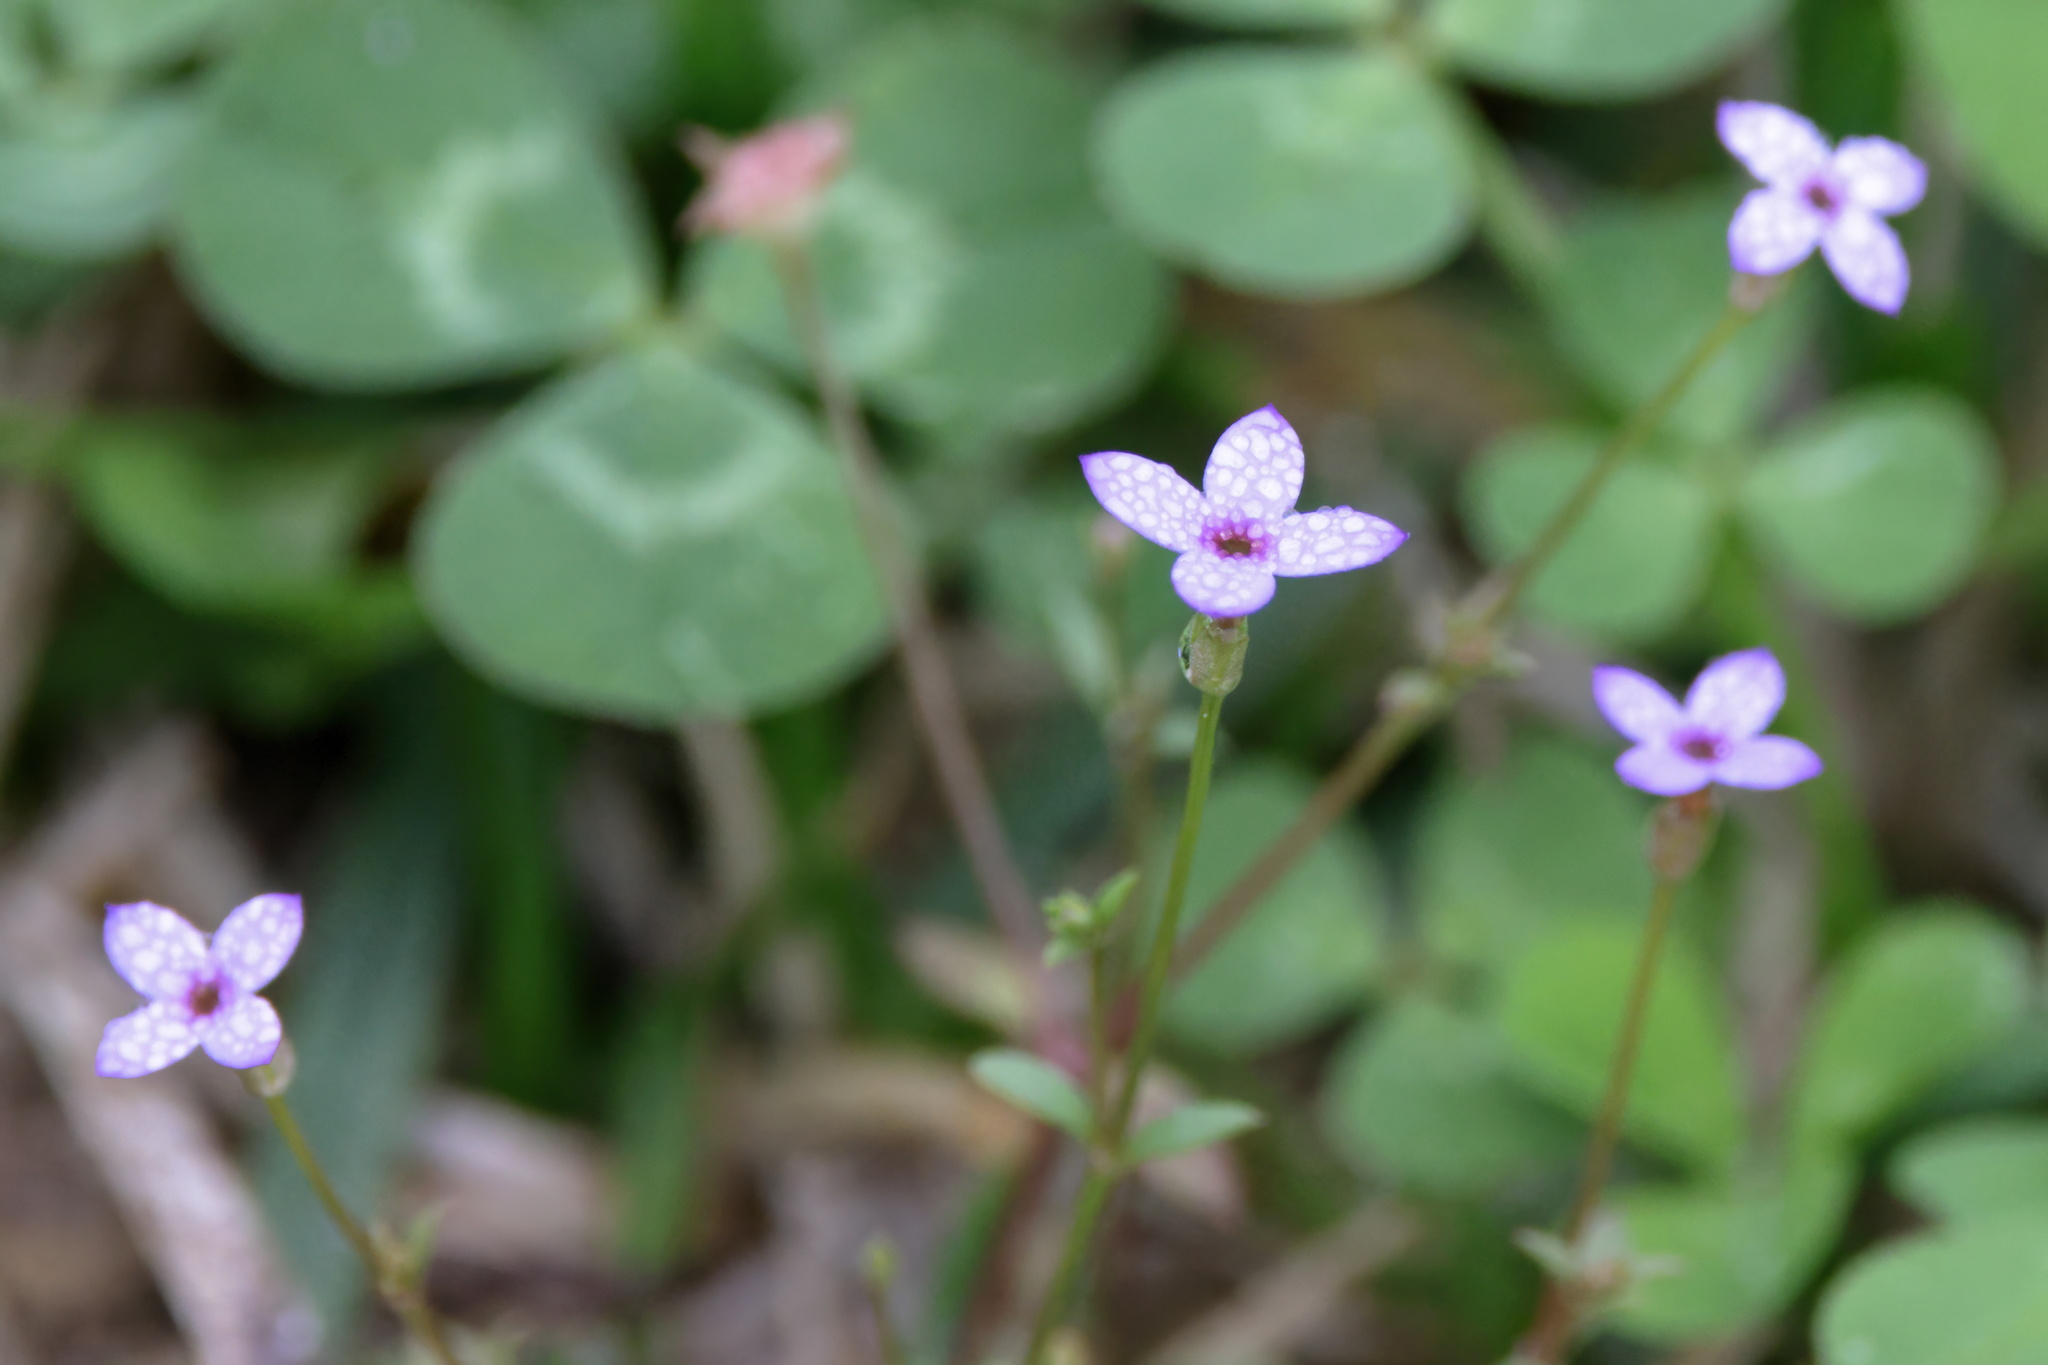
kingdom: Plantae
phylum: Tracheophyta
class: Magnoliopsida
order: Gentianales
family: Rubiaceae
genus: Houstonia
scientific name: Houstonia pusilla
